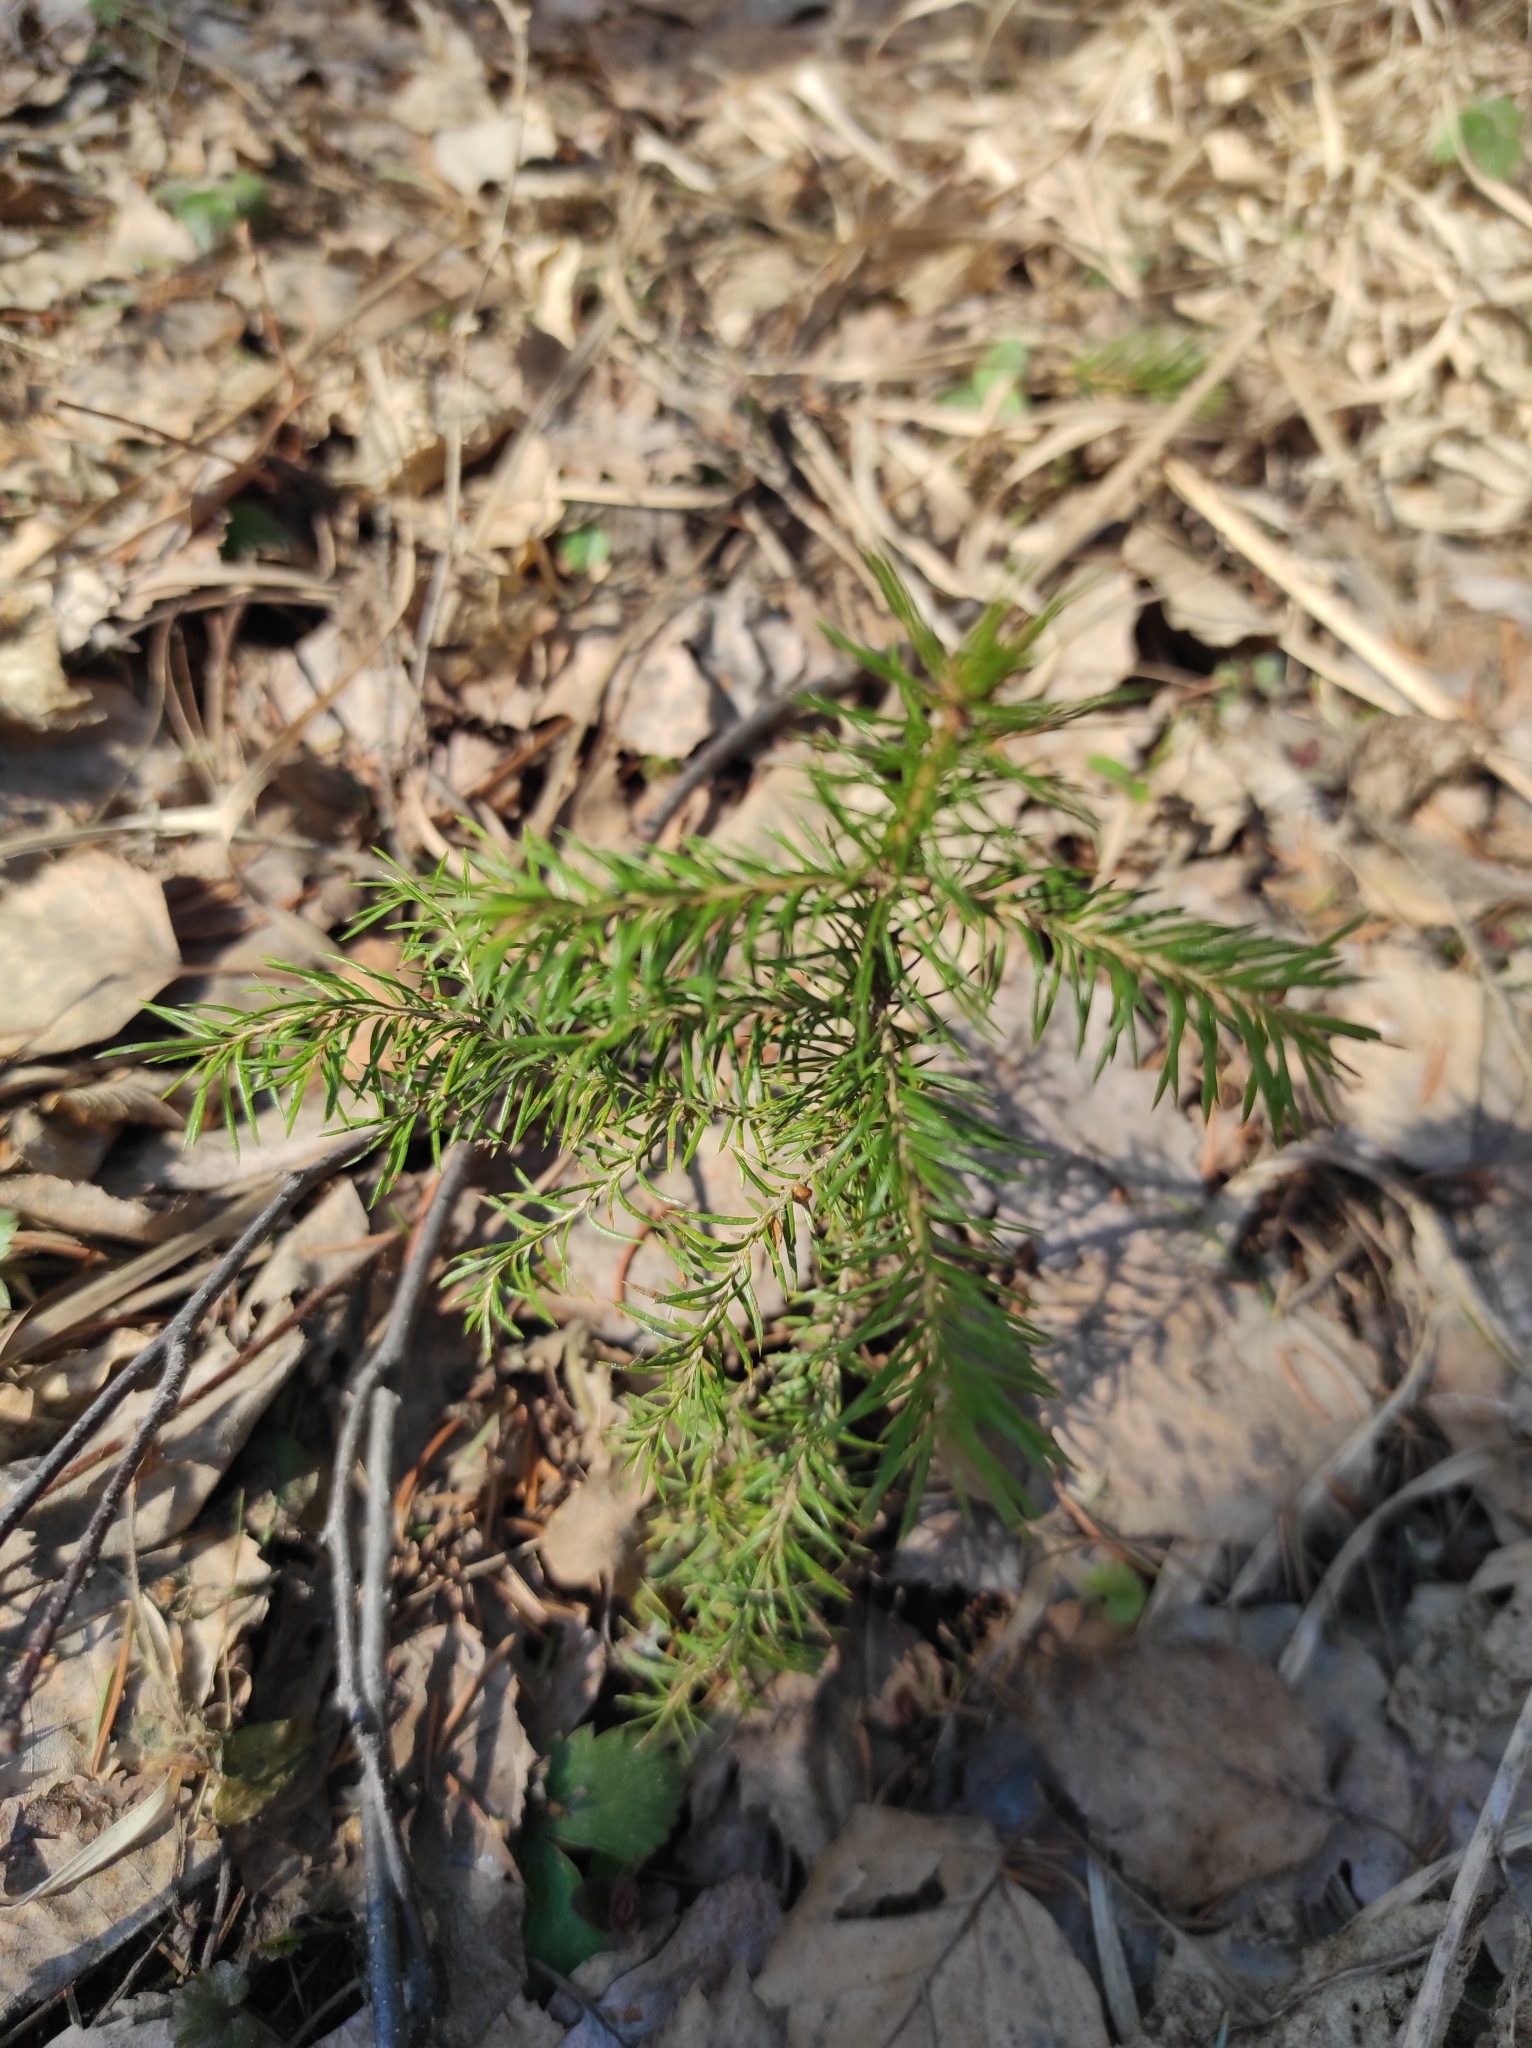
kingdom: Plantae
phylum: Tracheophyta
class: Pinopsida
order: Pinales
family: Pinaceae
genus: Picea
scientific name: Picea obovata
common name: Siberian spruce
